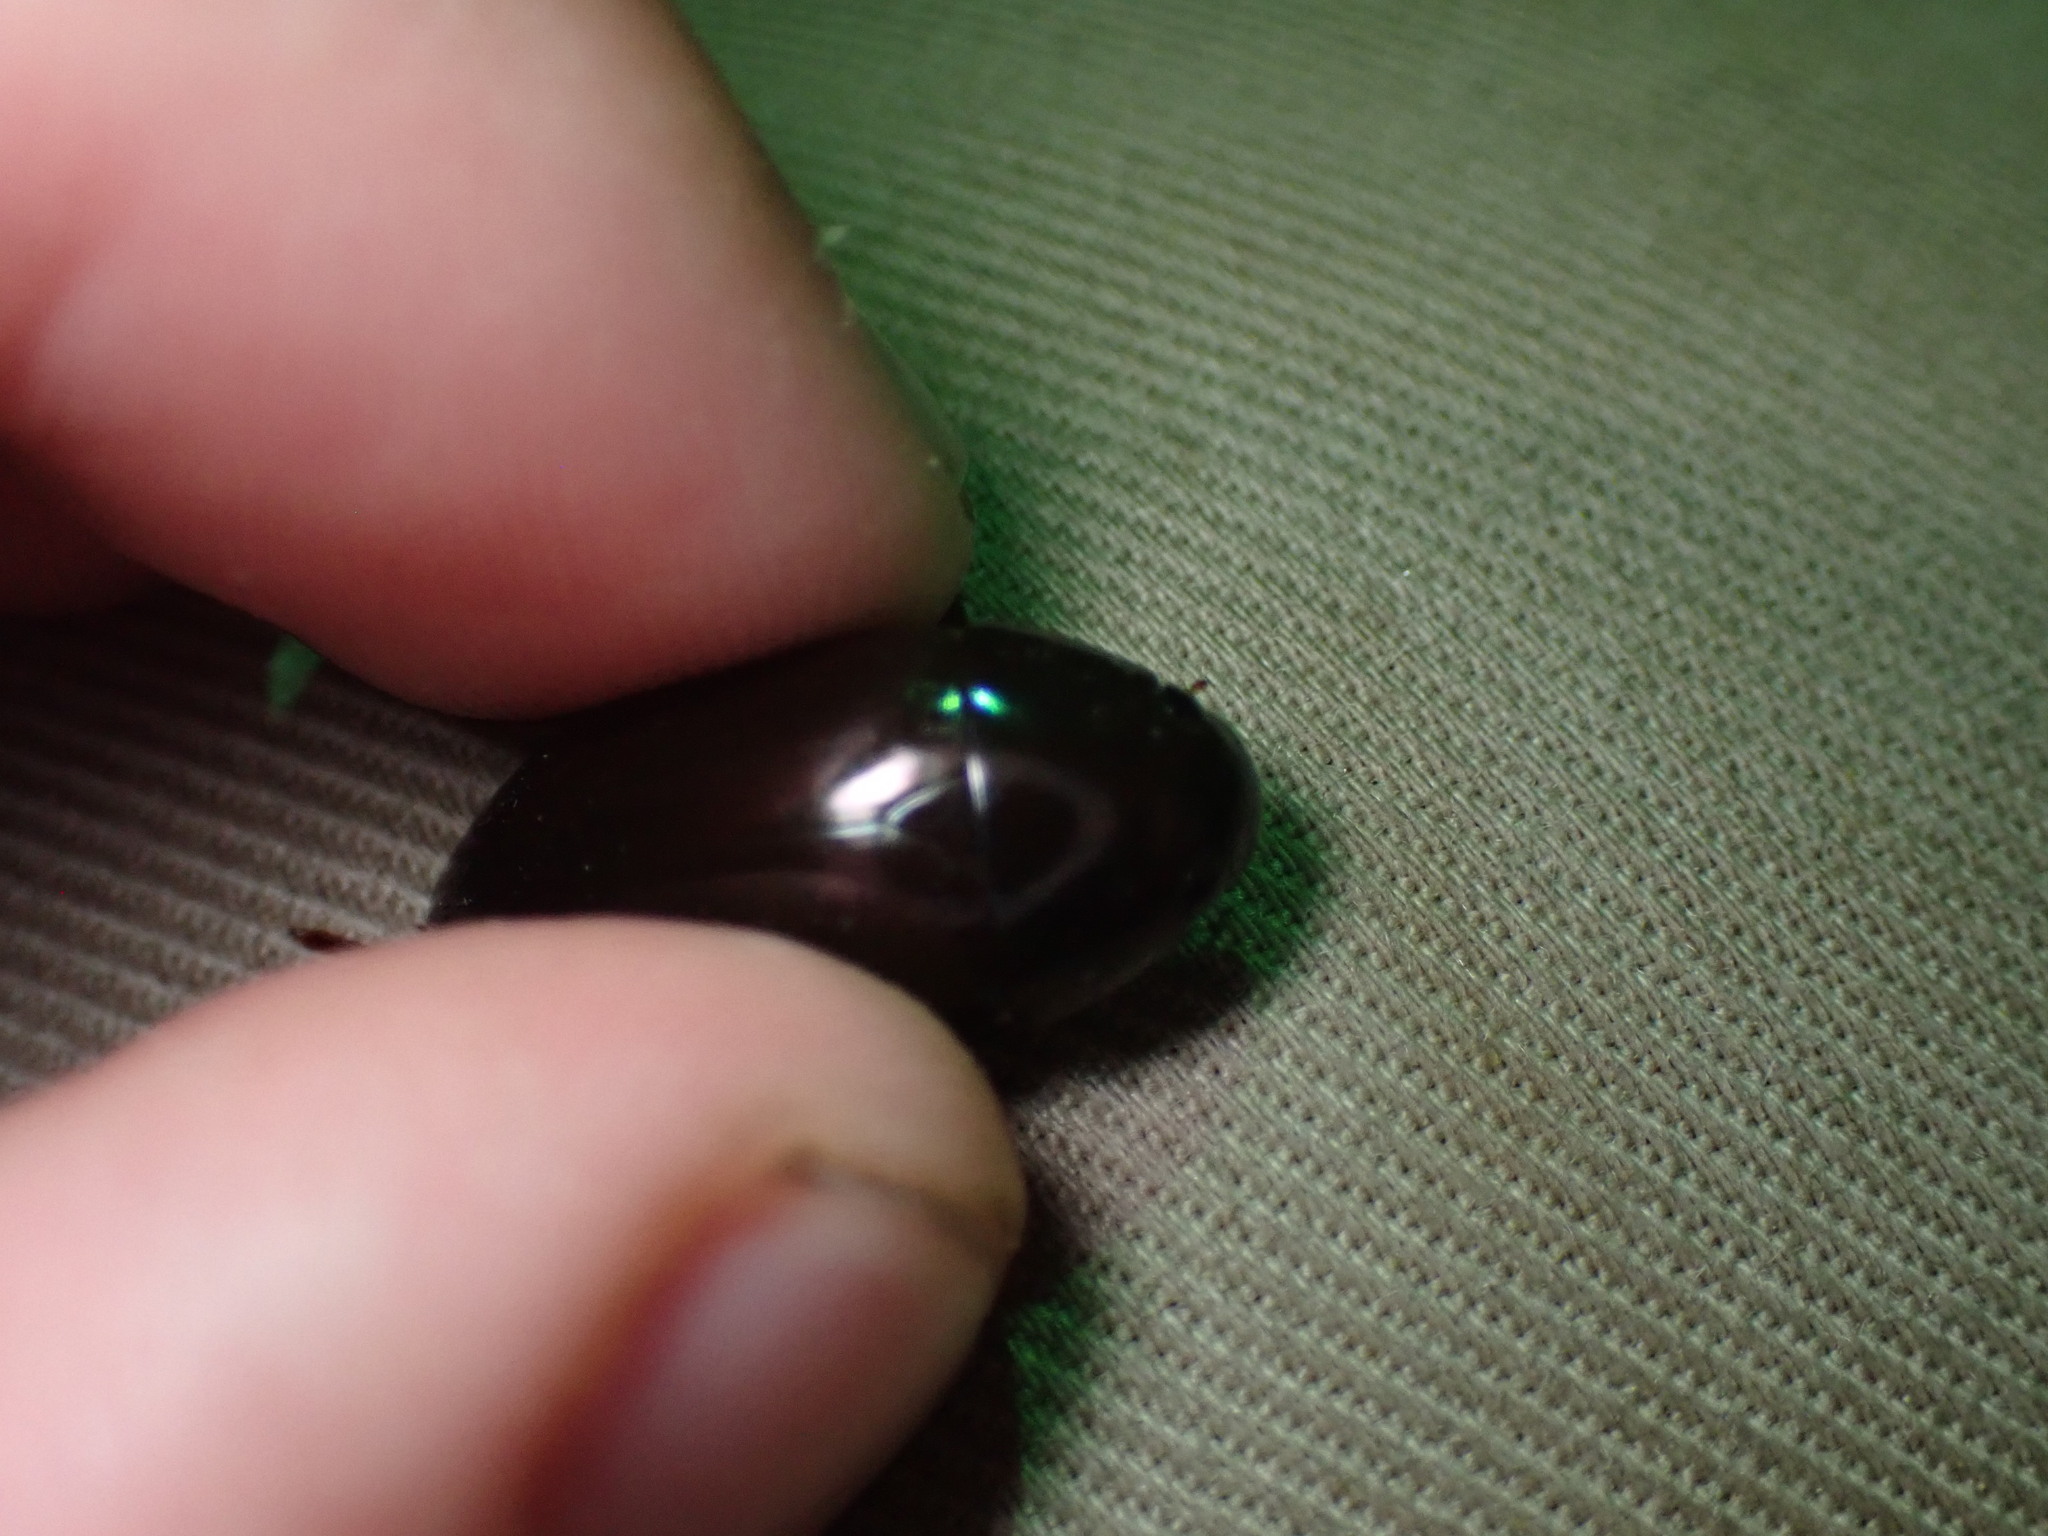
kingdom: Animalia
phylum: Arthropoda
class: Insecta
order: Coleoptera
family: Hydrophilidae
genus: Hydrochara
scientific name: Hydrochara
